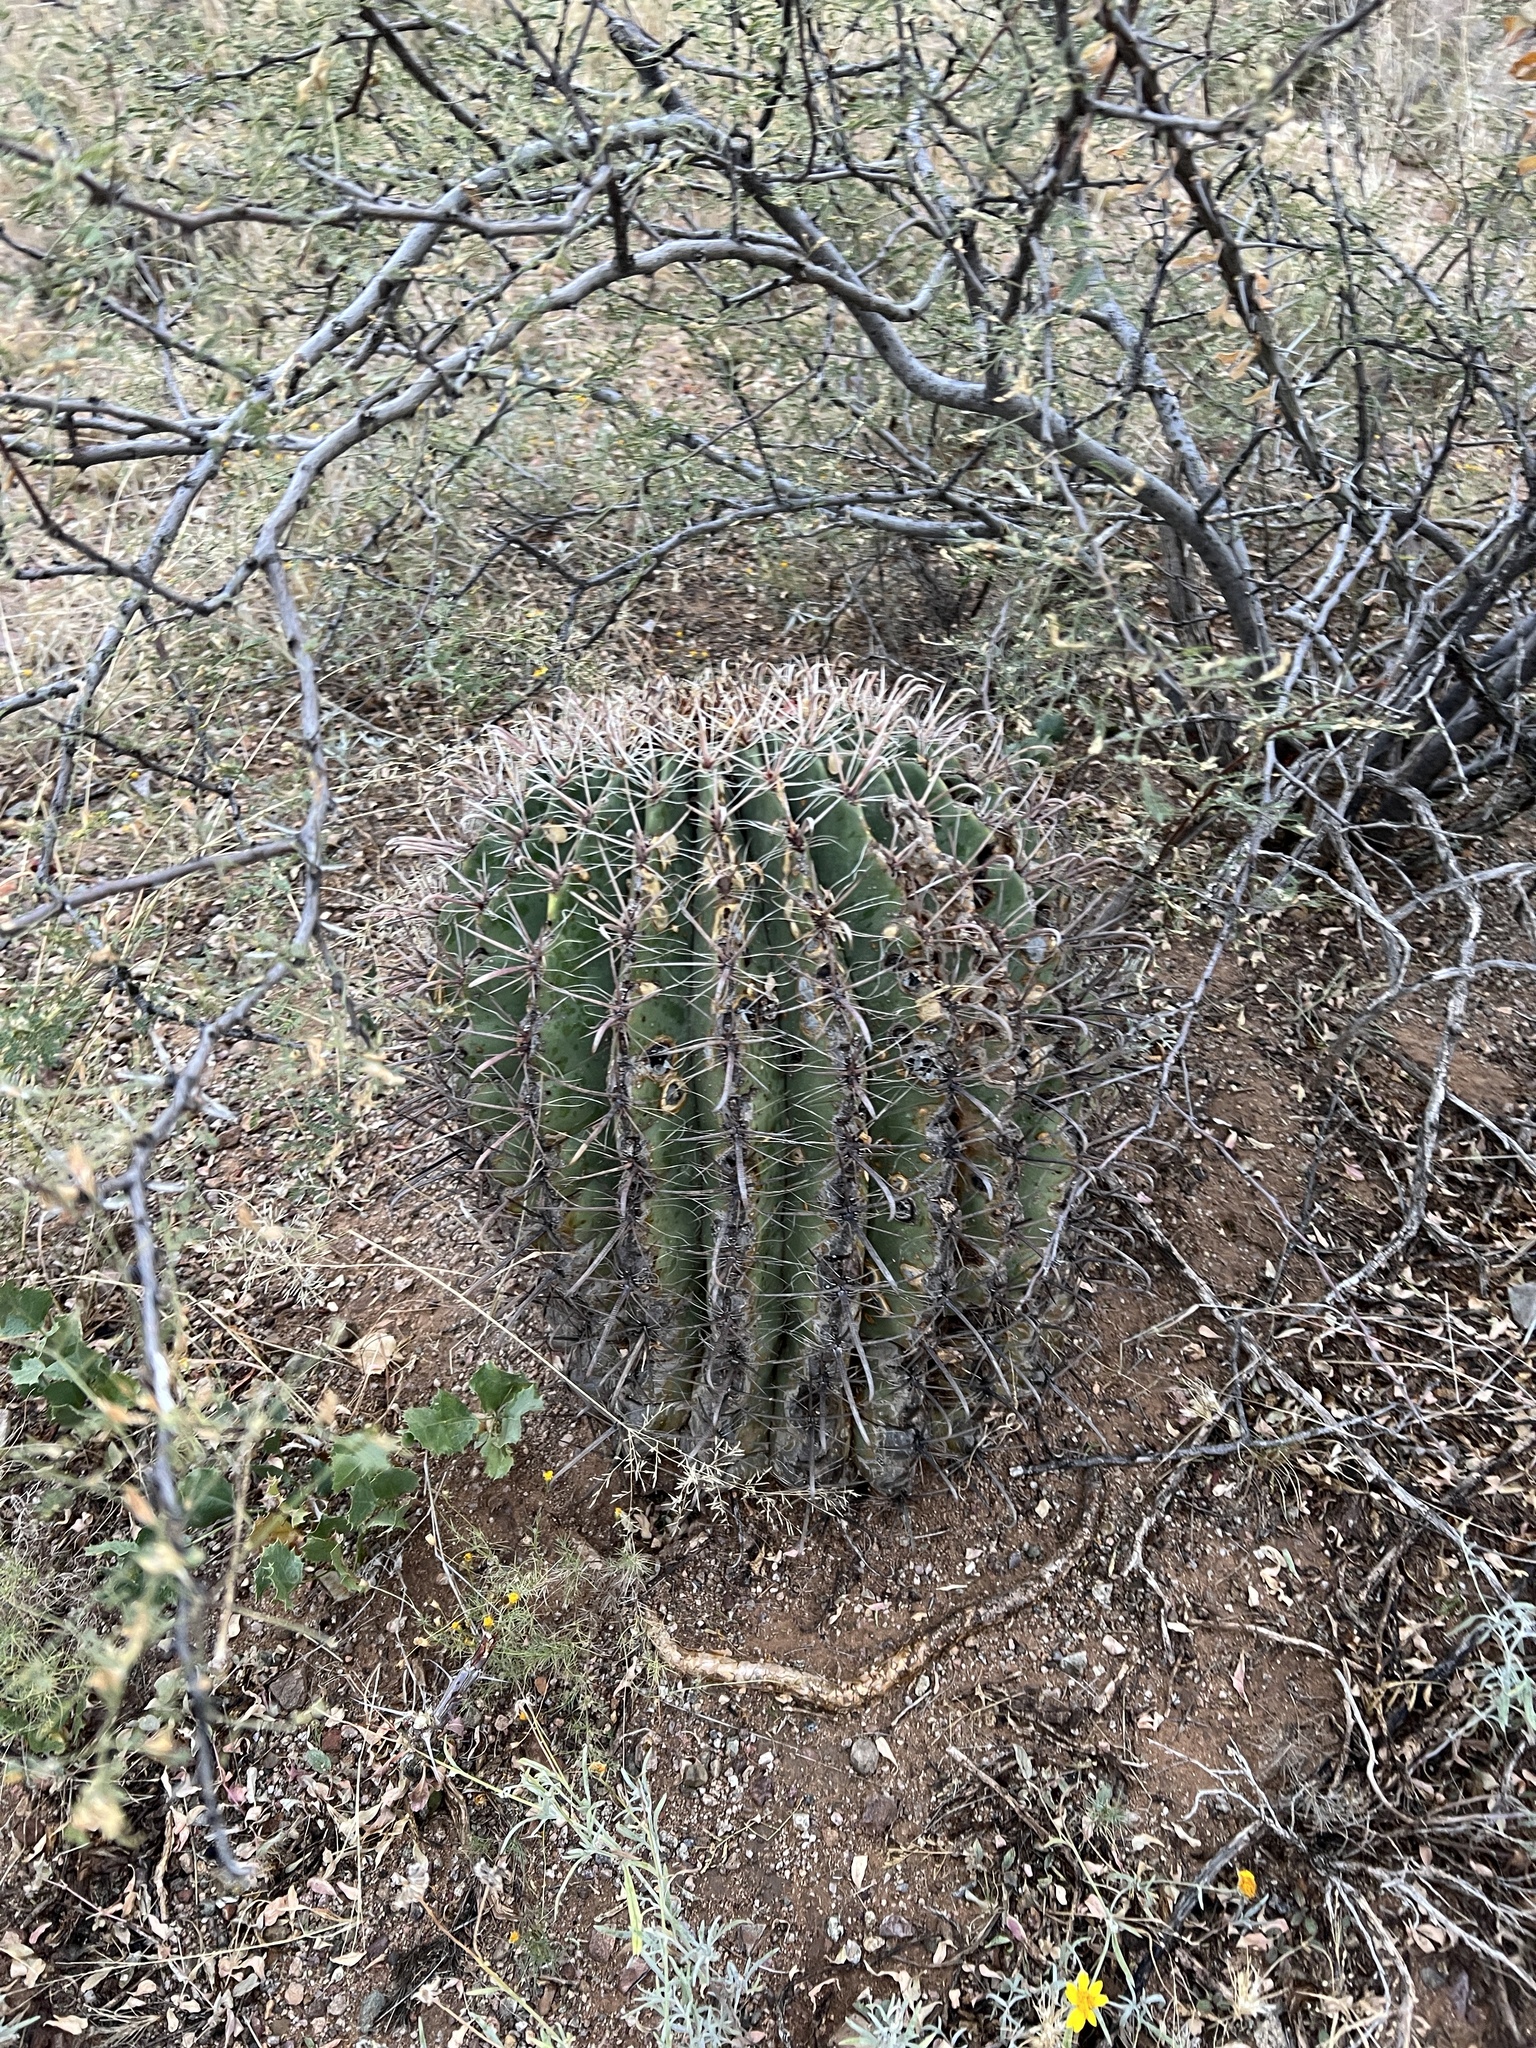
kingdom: Plantae
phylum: Tracheophyta
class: Magnoliopsida
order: Caryophyllales
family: Cactaceae
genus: Ferocactus
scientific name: Ferocactus wislizeni
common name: Candy barrel cactus
